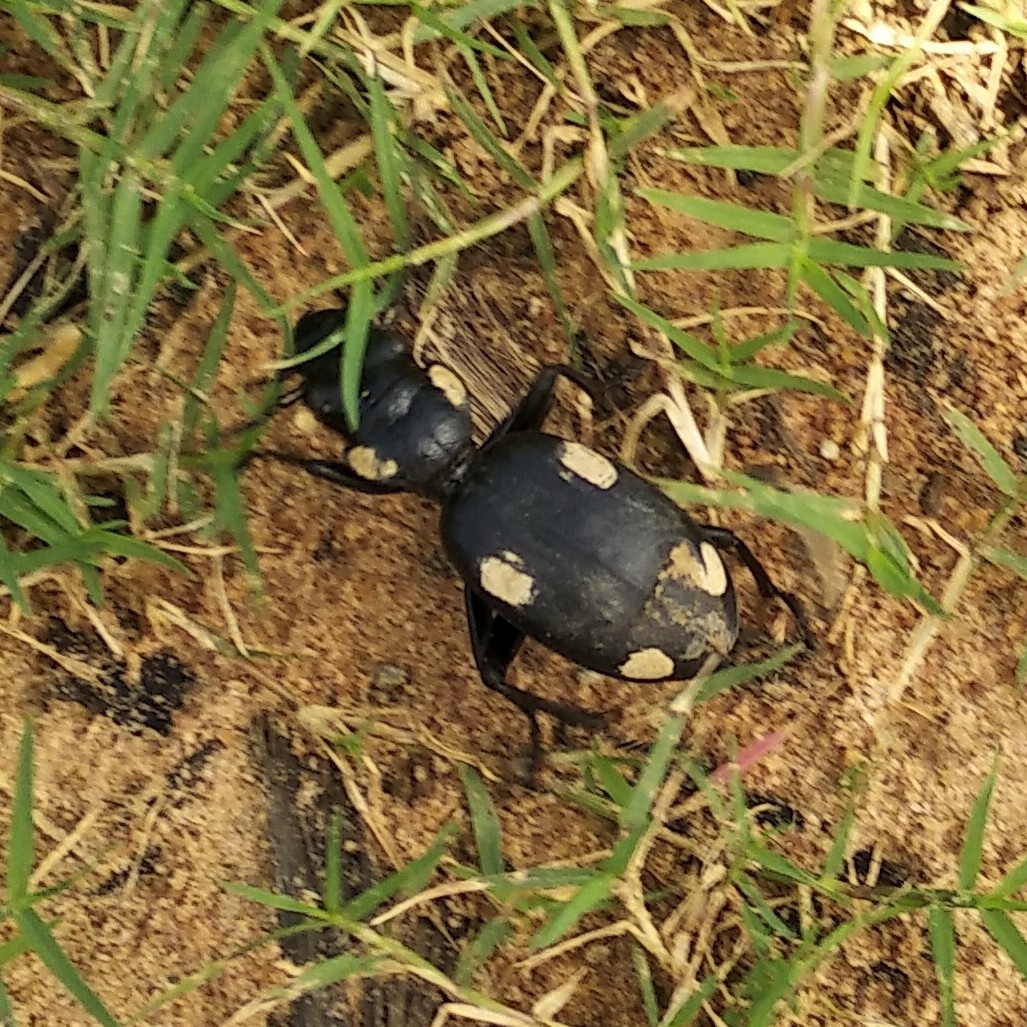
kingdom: Animalia
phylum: Arthropoda
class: Insecta
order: Coleoptera
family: Carabidae
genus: Anthia
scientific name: Anthia sexguttata
